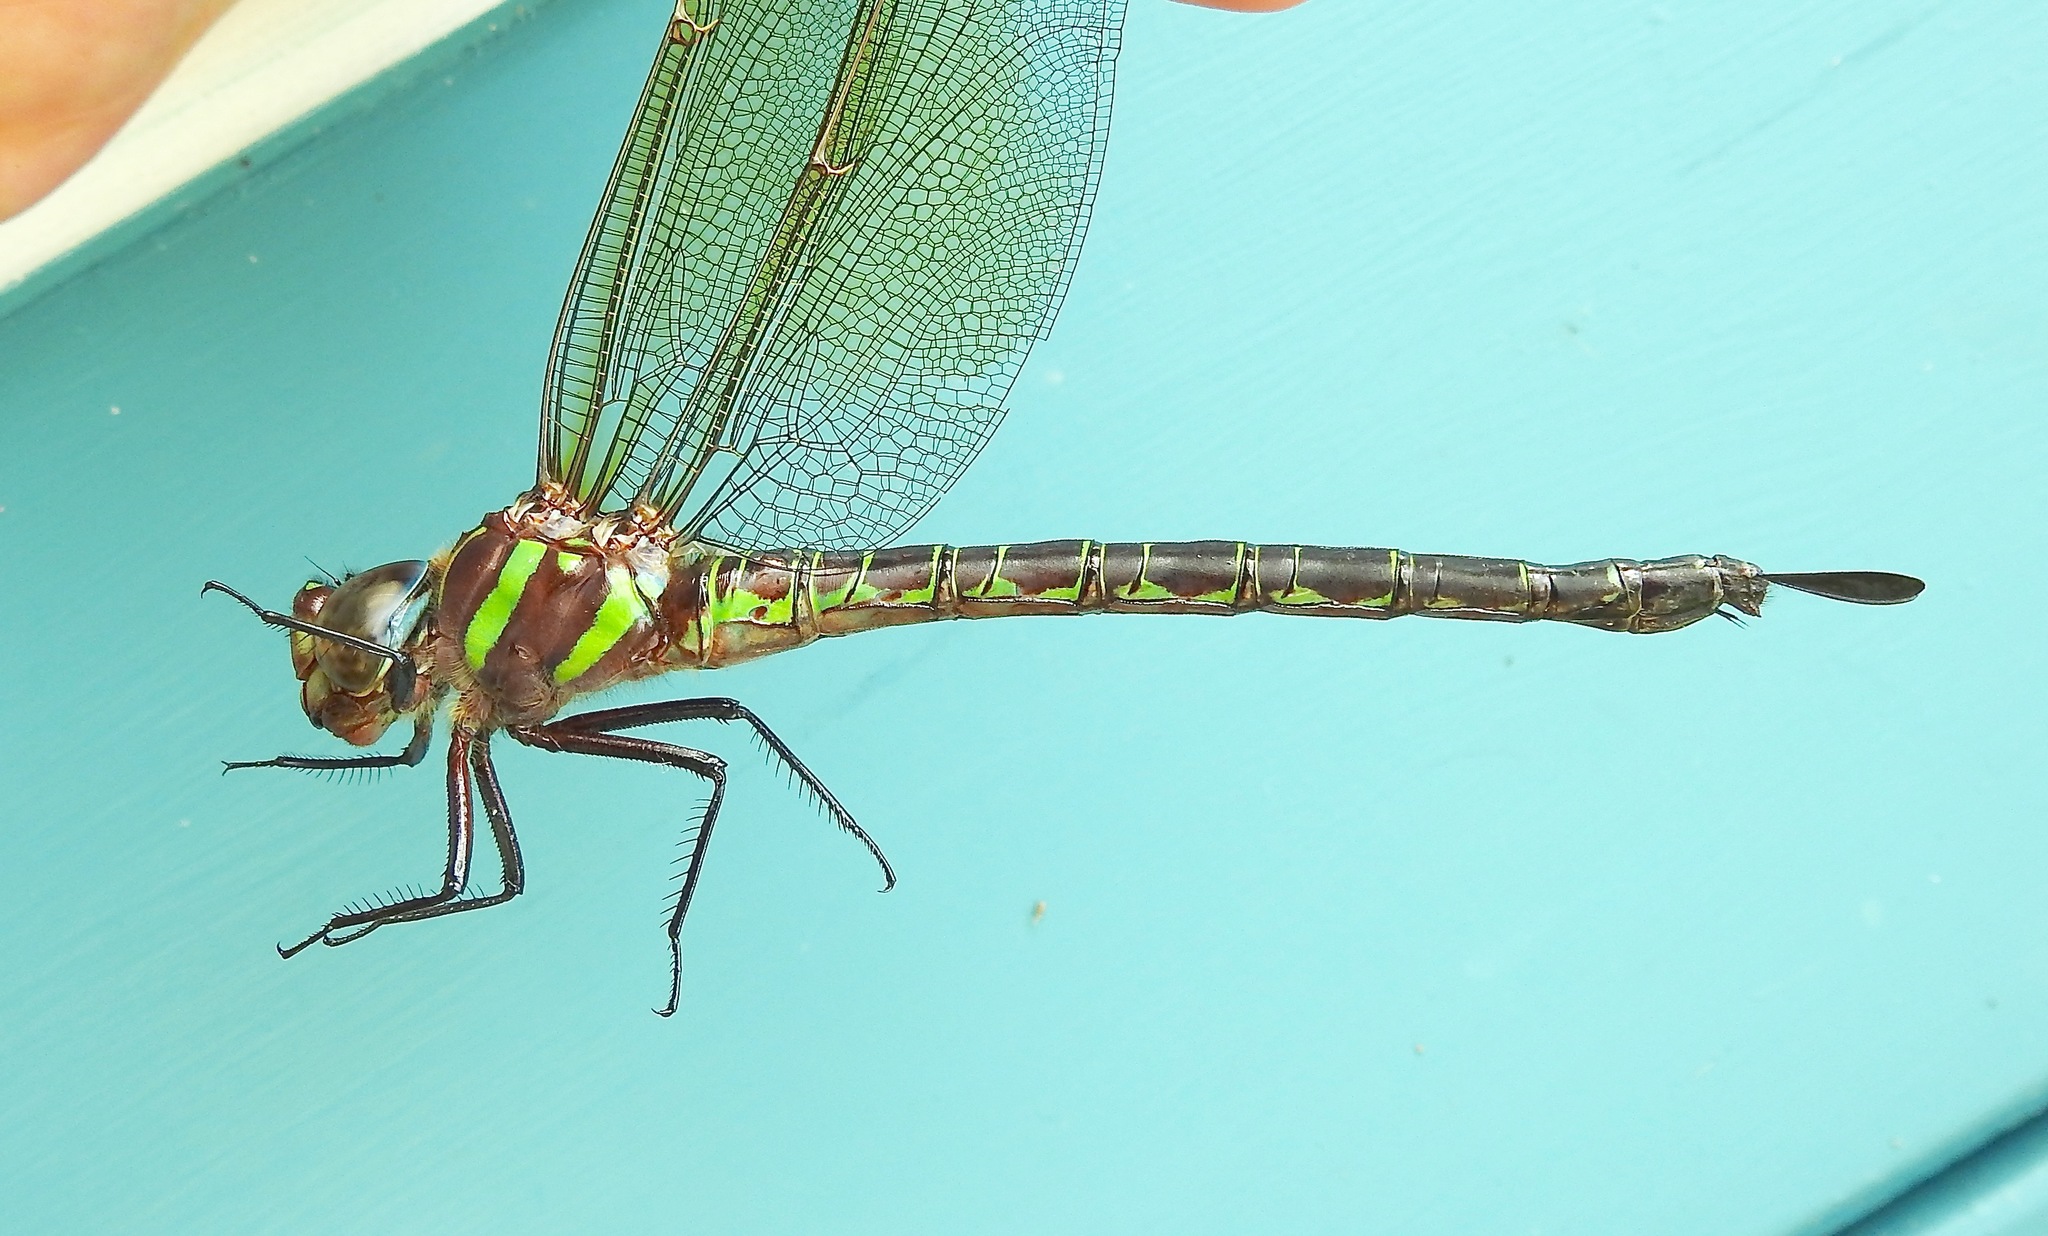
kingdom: Animalia
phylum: Arthropoda
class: Insecta
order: Odonata
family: Aeshnidae
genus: Epiaeschna
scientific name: Epiaeschna heros
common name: Swamp darner
